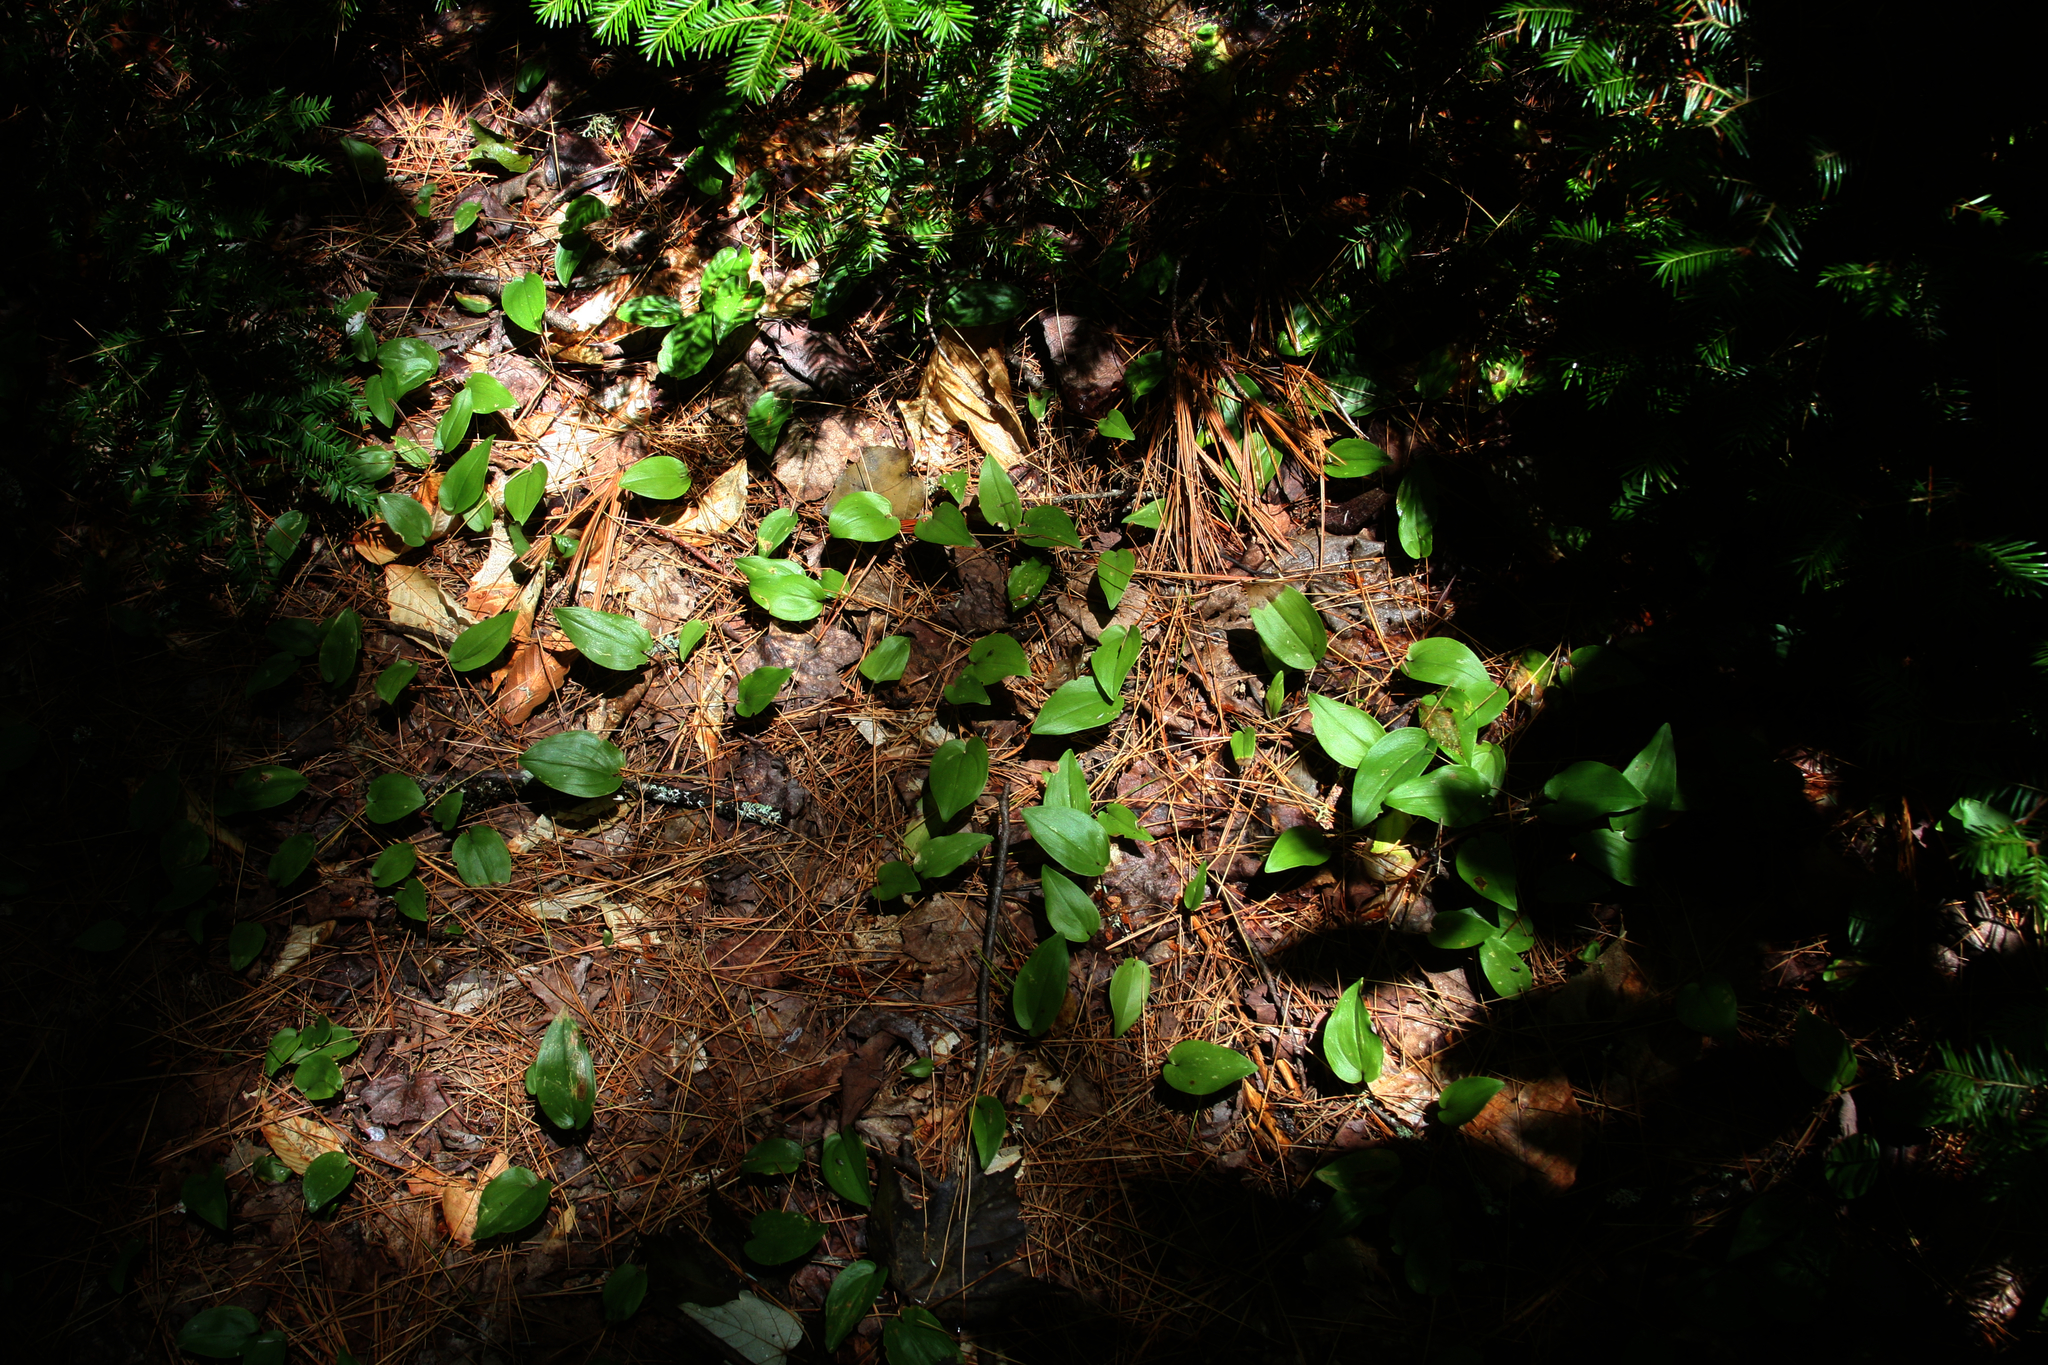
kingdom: Plantae
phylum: Tracheophyta
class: Liliopsida
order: Asparagales
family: Asparagaceae
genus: Maianthemum
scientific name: Maianthemum canadense
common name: False lily-of-the-valley
